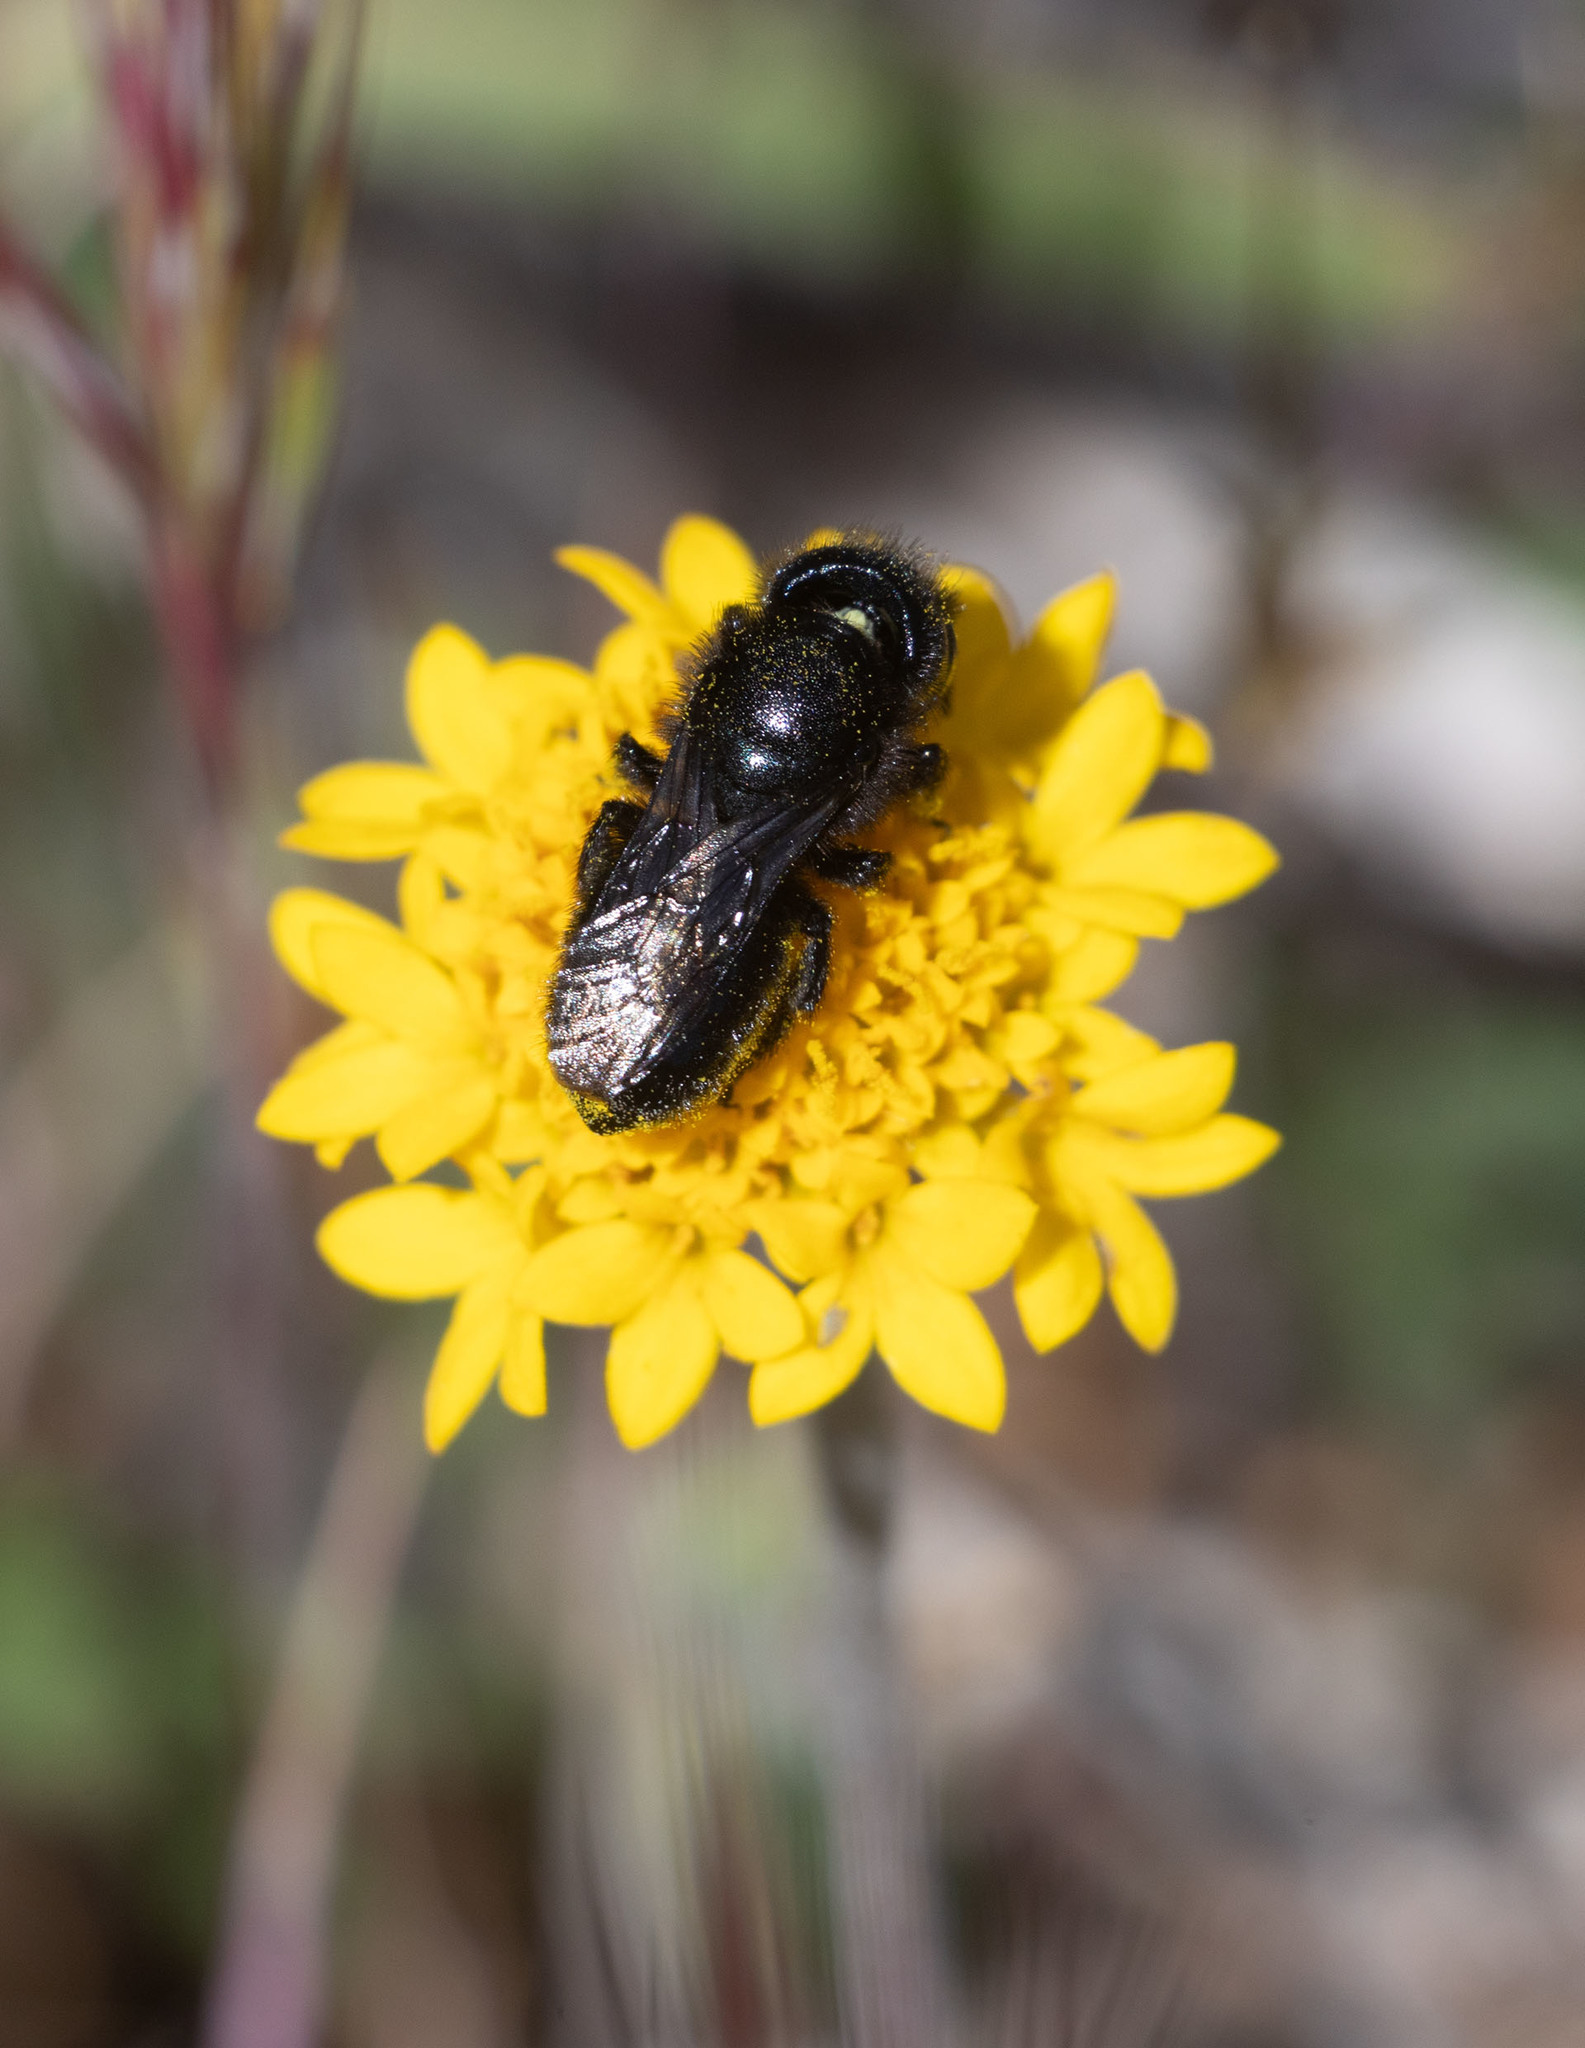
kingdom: Animalia
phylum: Arthropoda
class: Insecta
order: Hymenoptera
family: Megachilidae
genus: Osmia
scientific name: Osmia montana
